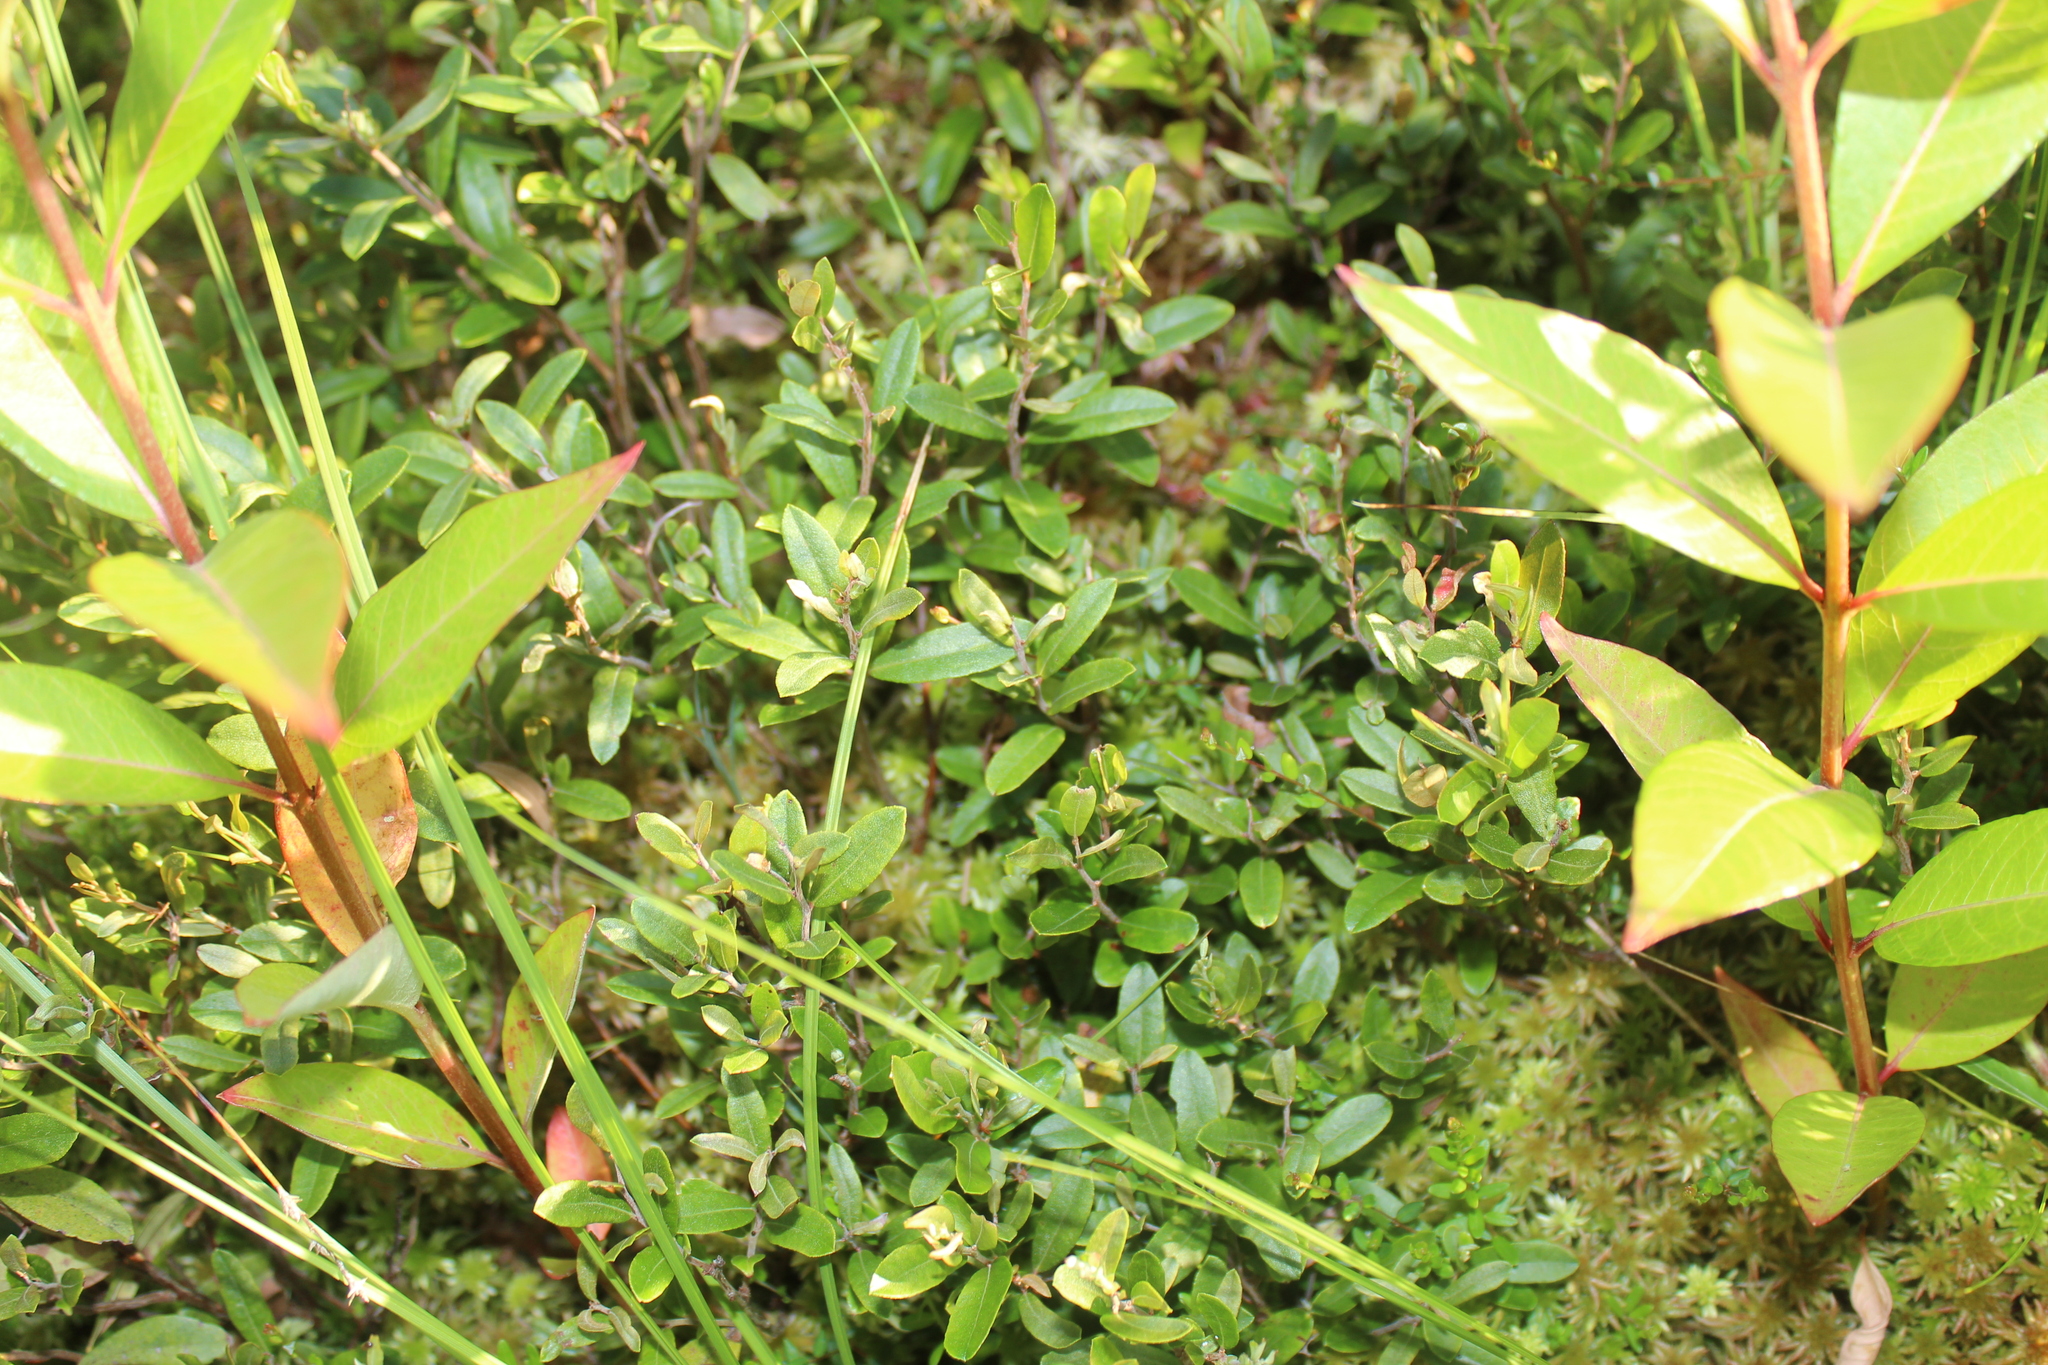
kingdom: Plantae
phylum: Tracheophyta
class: Magnoliopsida
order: Ericales
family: Ericaceae
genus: Chamaedaphne
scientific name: Chamaedaphne calyculata
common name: Leatherleaf
